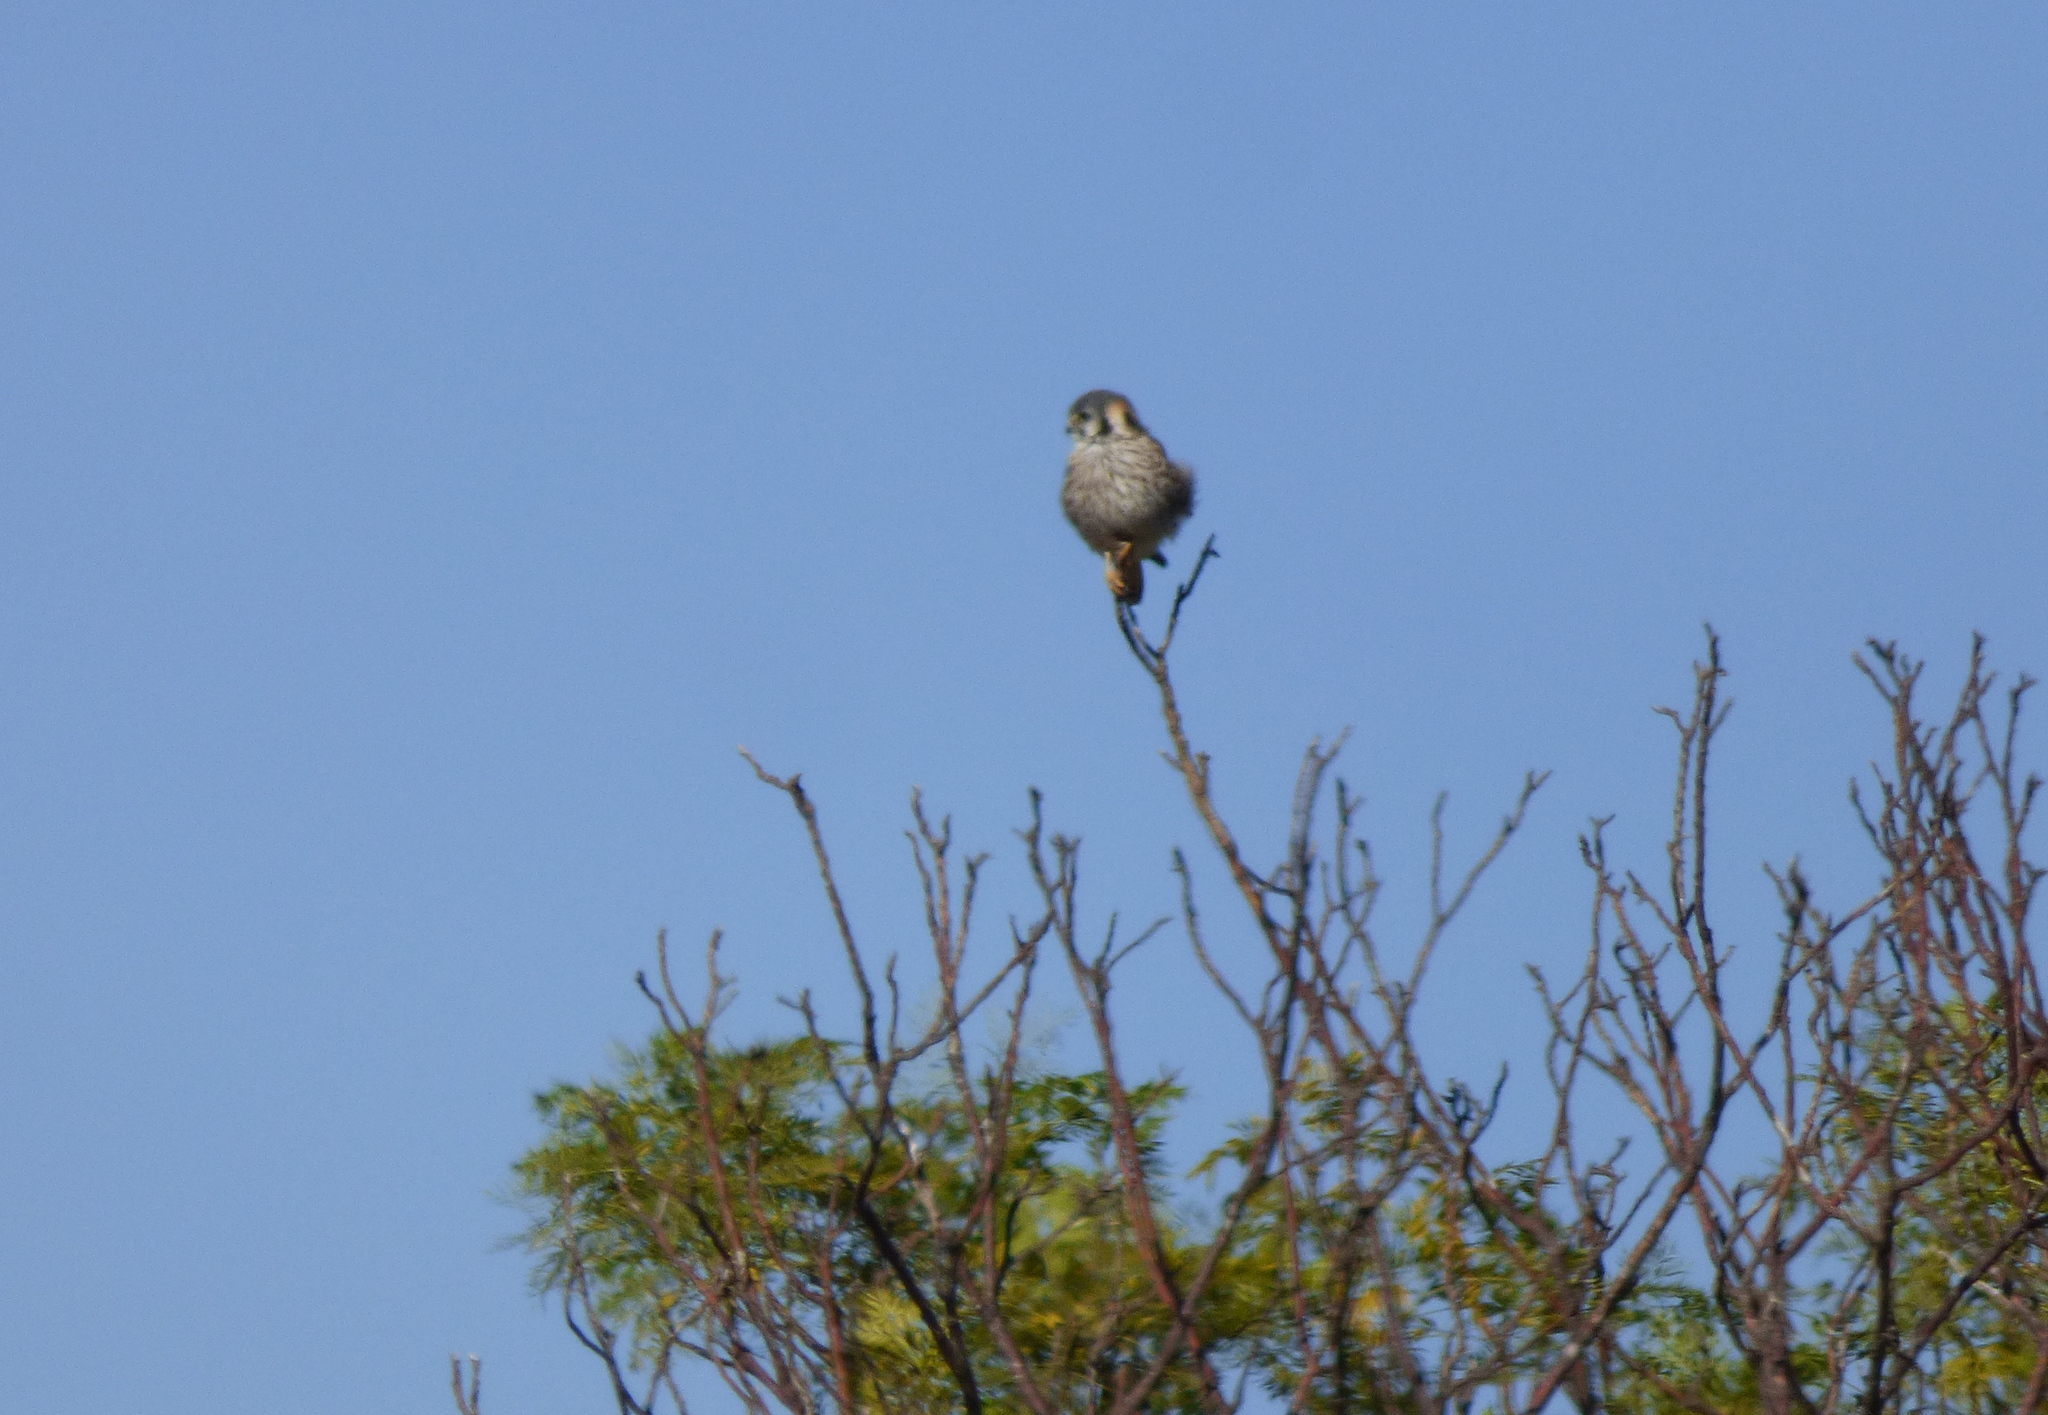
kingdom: Animalia
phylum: Chordata
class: Aves
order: Falconiformes
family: Falconidae
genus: Falco
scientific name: Falco sparverius
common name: American kestrel
